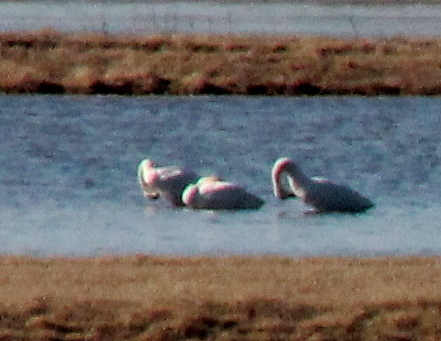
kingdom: Animalia
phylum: Chordata
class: Aves
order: Anseriformes
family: Anatidae
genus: Cygnus
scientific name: Cygnus columbianus
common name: Tundra swan
